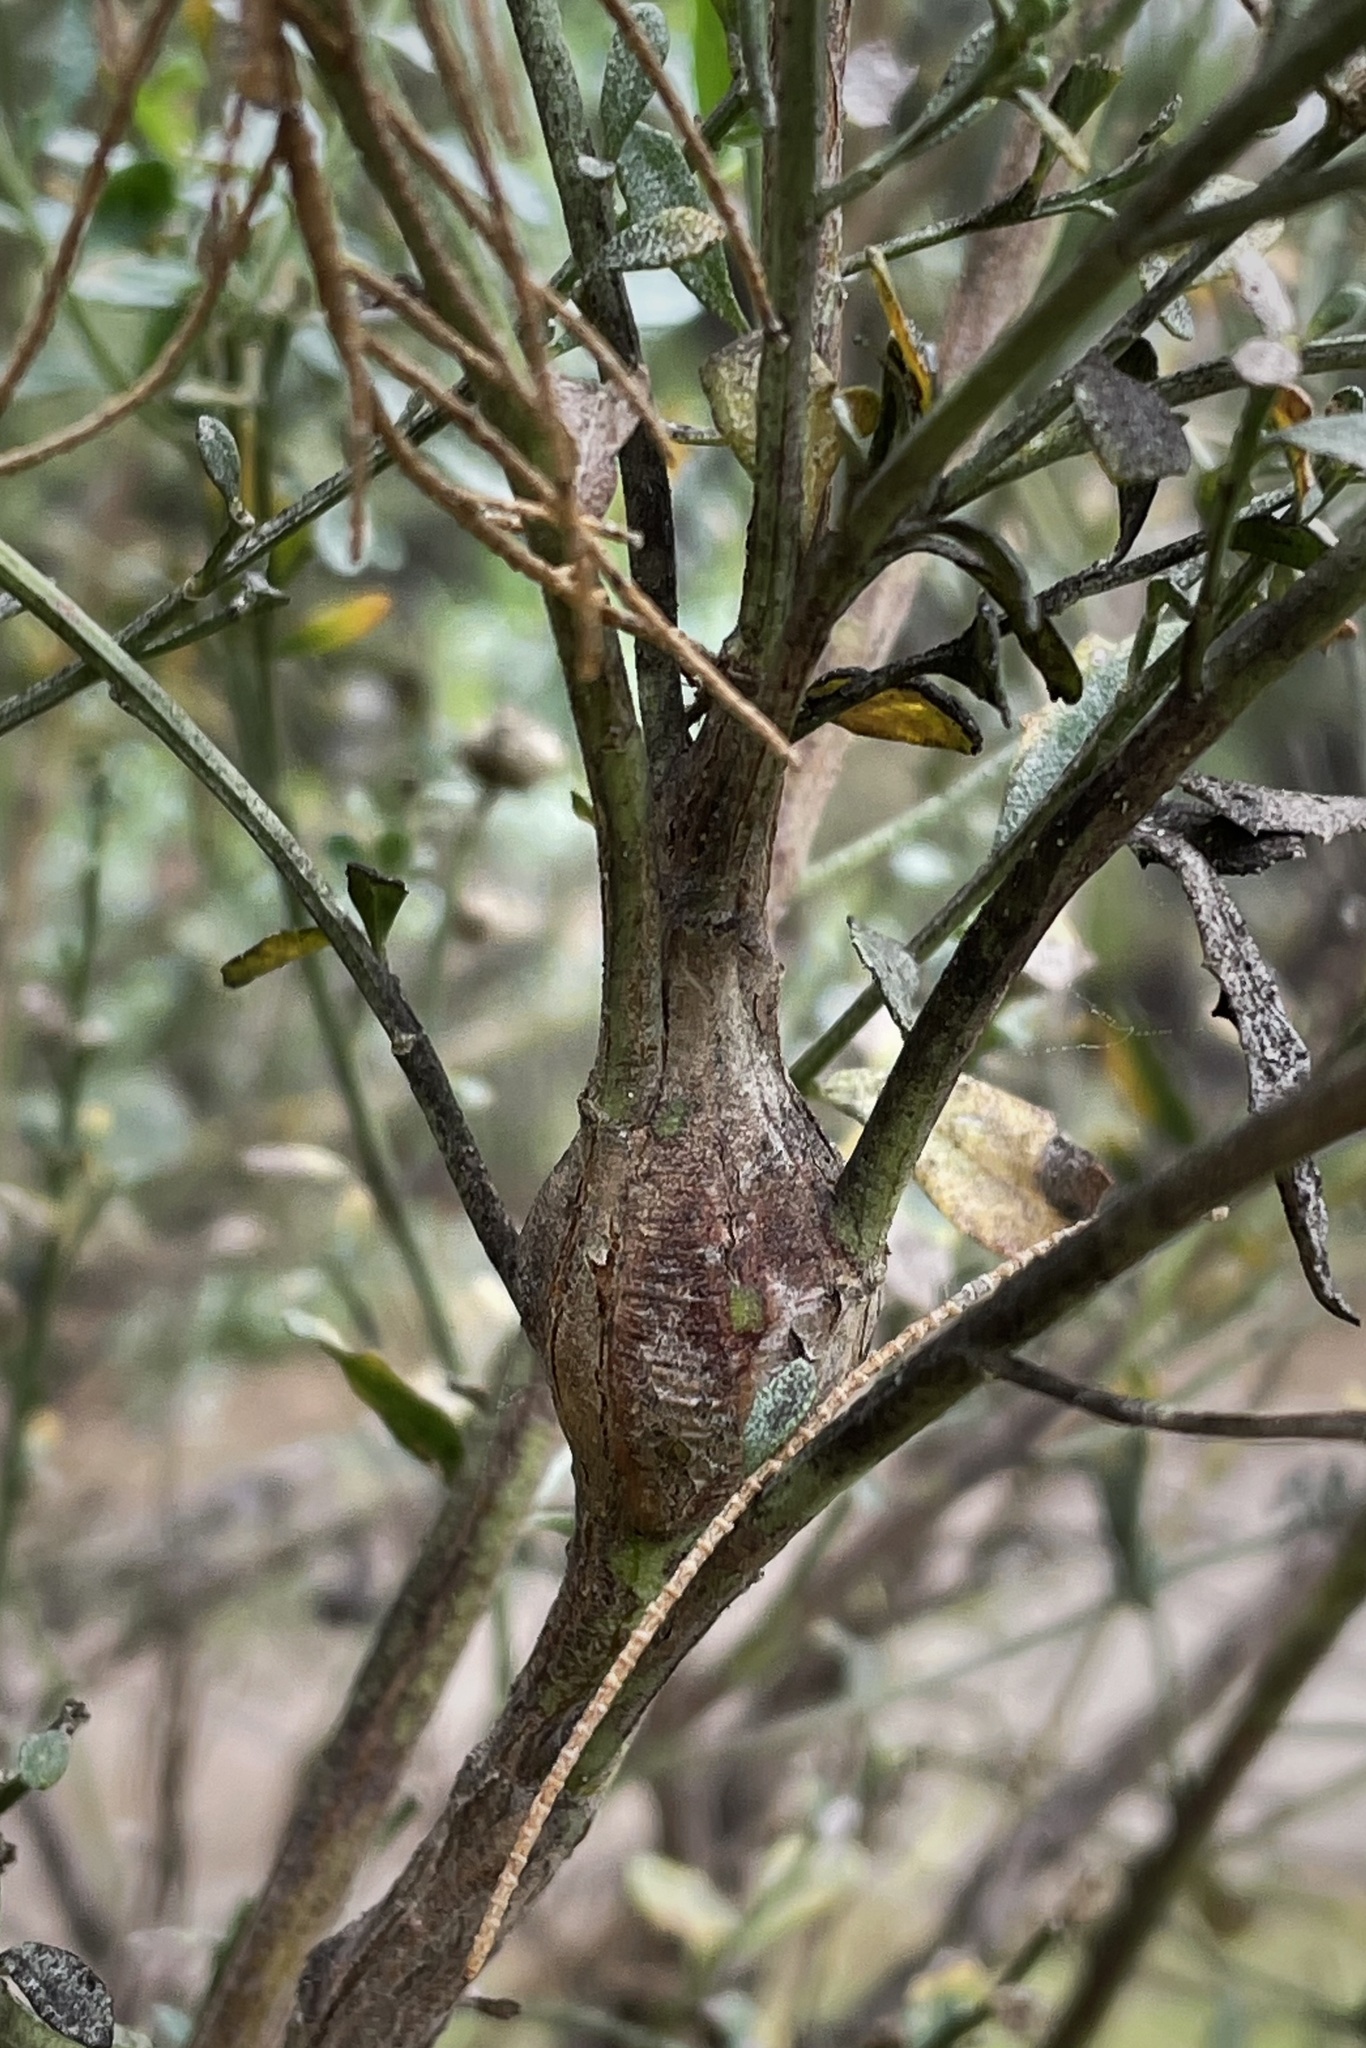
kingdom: Animalia
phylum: Arthropoda
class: Insecta
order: Lepidoptera
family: Gelechiidae
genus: Gnorimoschema
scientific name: Gnorimoschema baccharisella
